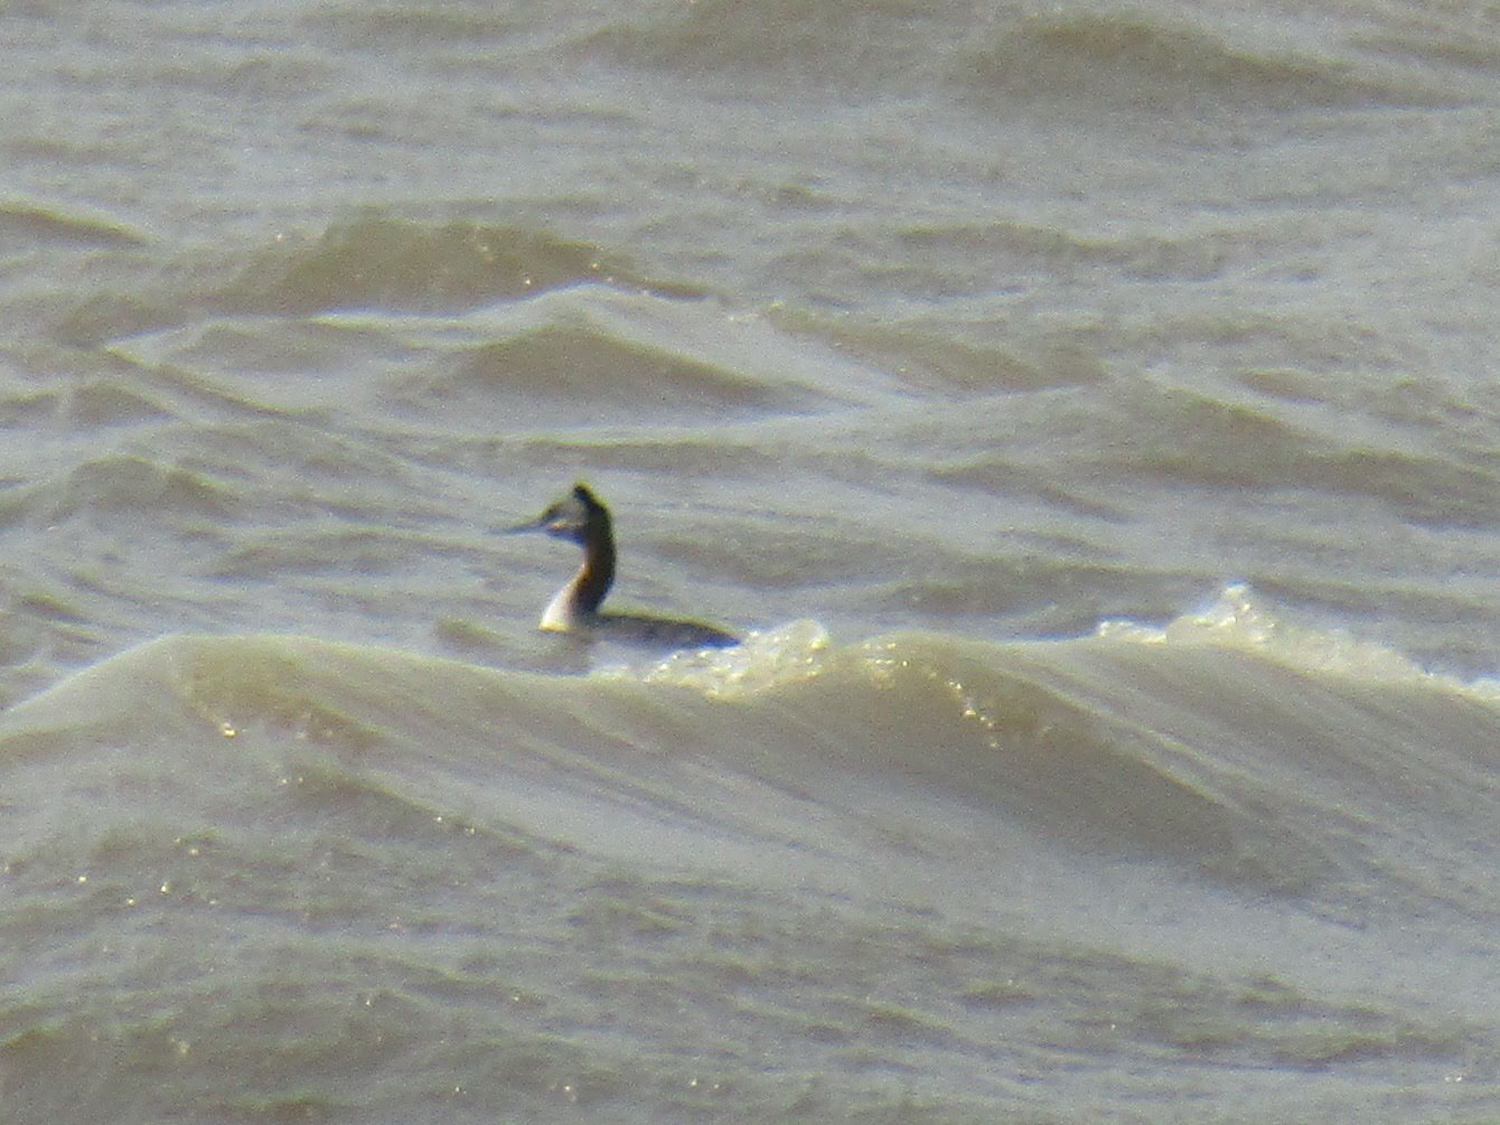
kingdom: Animalia
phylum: Chordata
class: Aves
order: Podicipediformes
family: Podicipedidae
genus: Podiceps
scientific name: Podiceps major
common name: Great grebe
